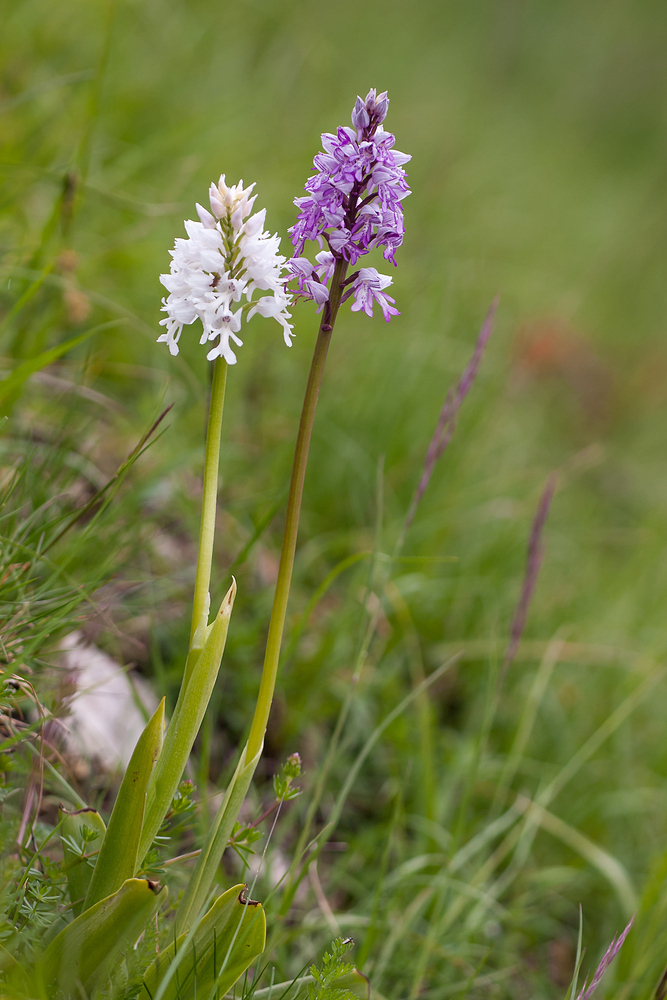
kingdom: Plantae
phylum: Tracheophyta
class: Liliopsida
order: Asparagales
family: Orchidaceae
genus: Orchis
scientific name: Orchis militaris
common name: Military orchid
